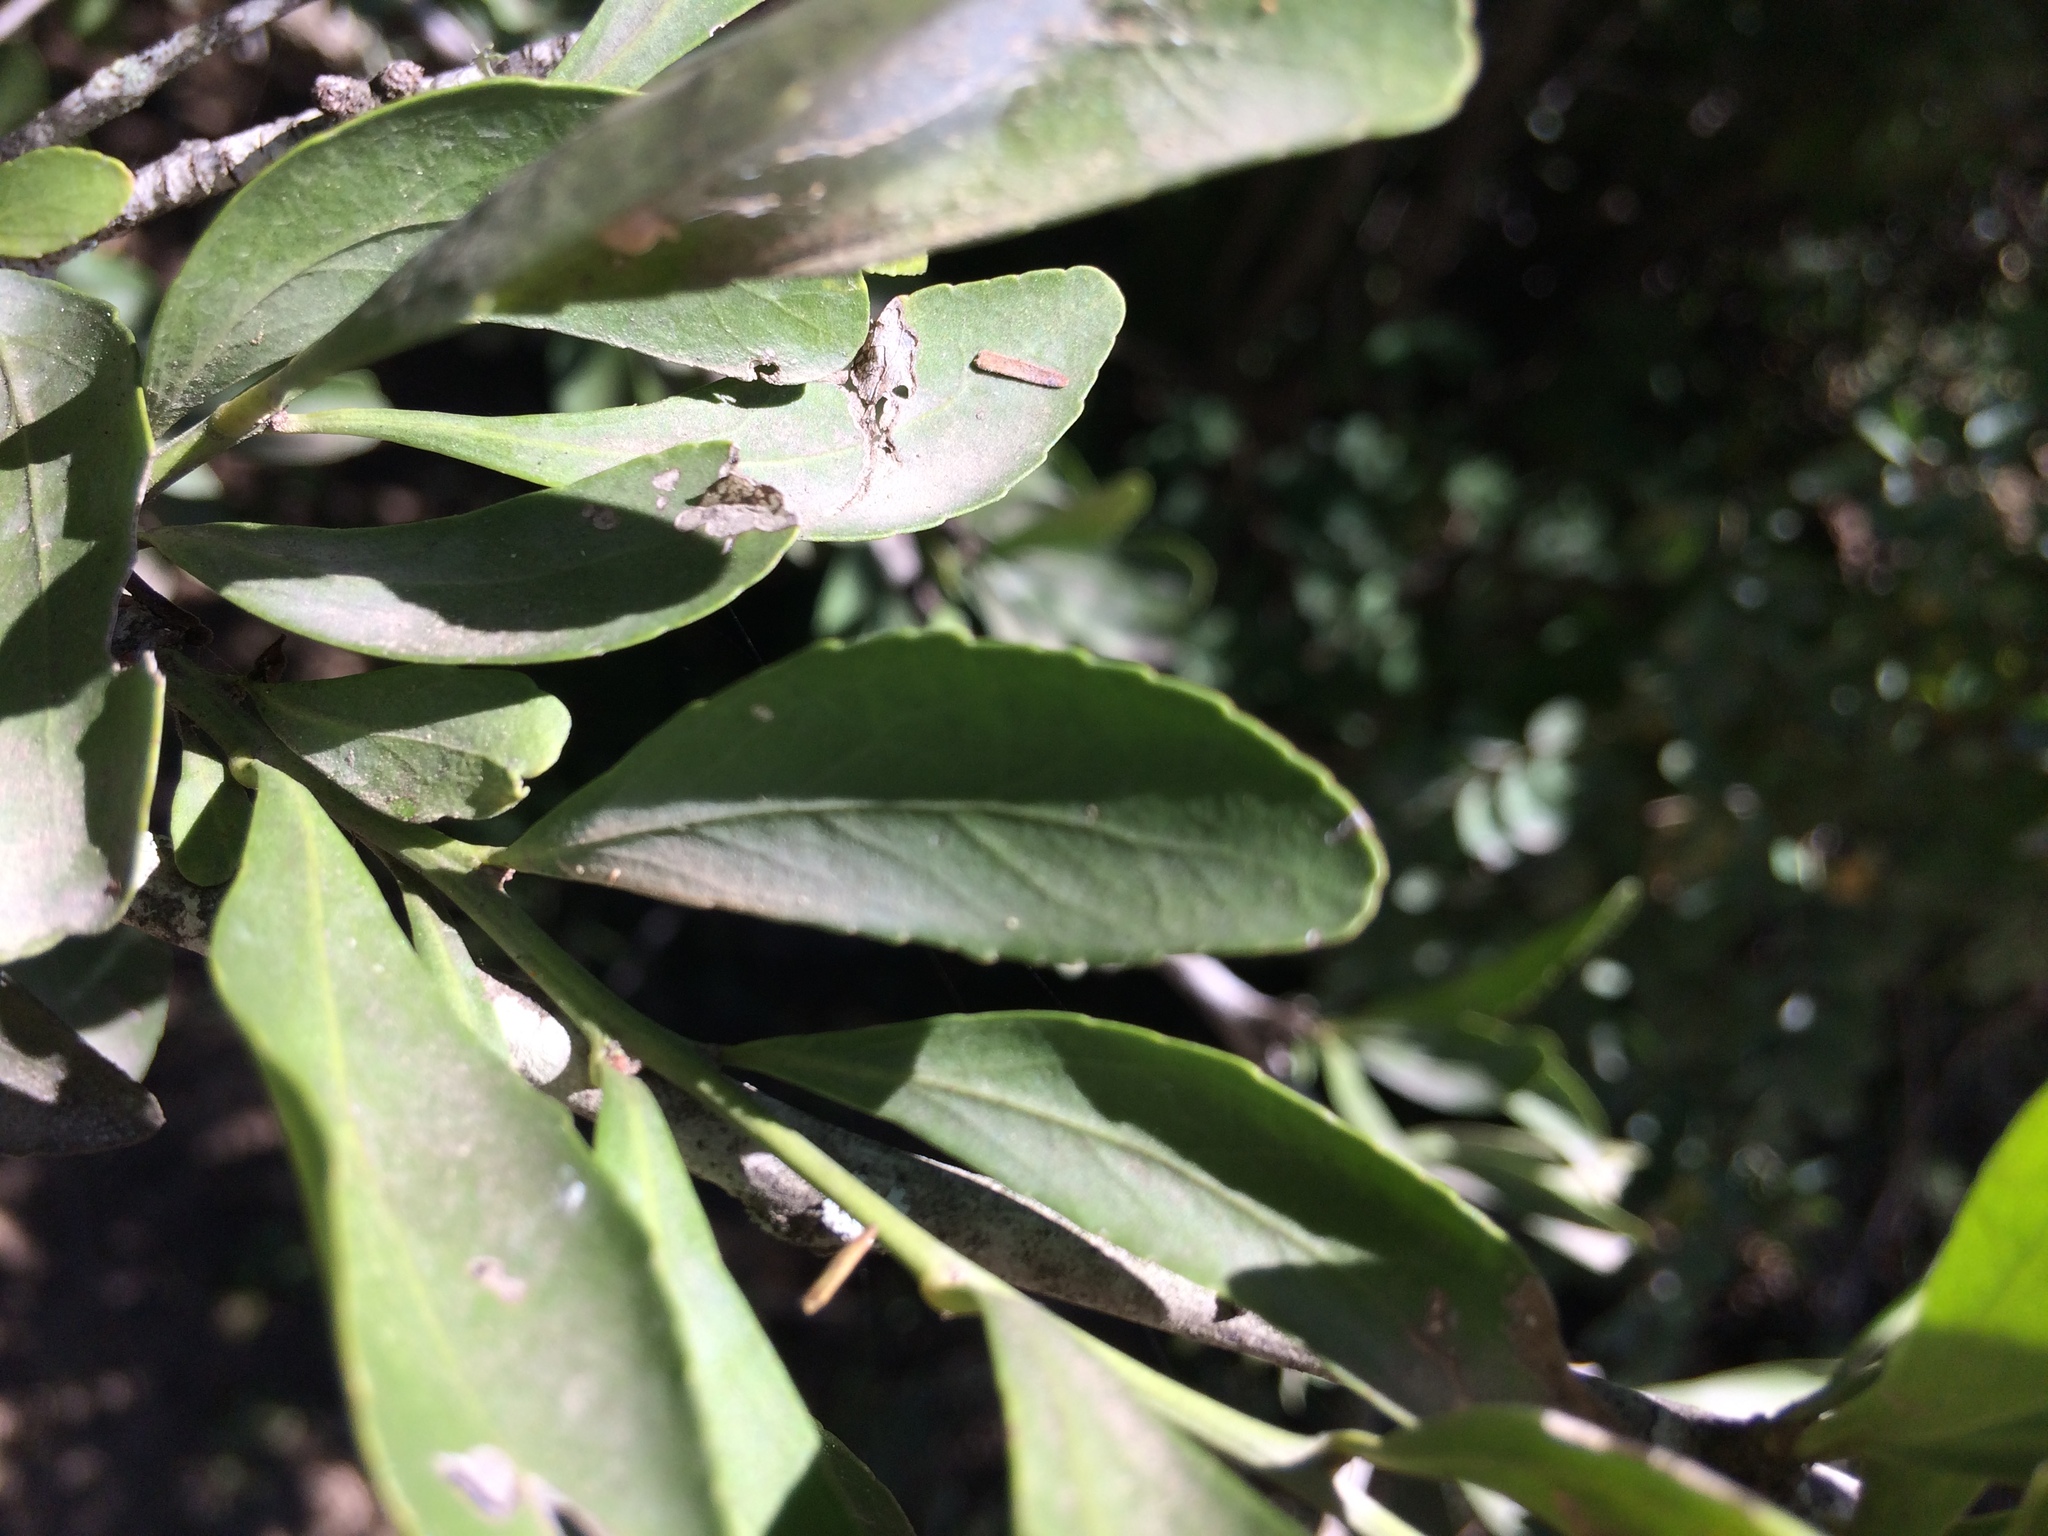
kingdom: Plantae
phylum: Tracheophyta
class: Magnoliopsida
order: Celastrales
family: Celastraceae
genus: Gymnosporia
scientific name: Gymnosporia buxifolia
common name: Common spike-thorn
